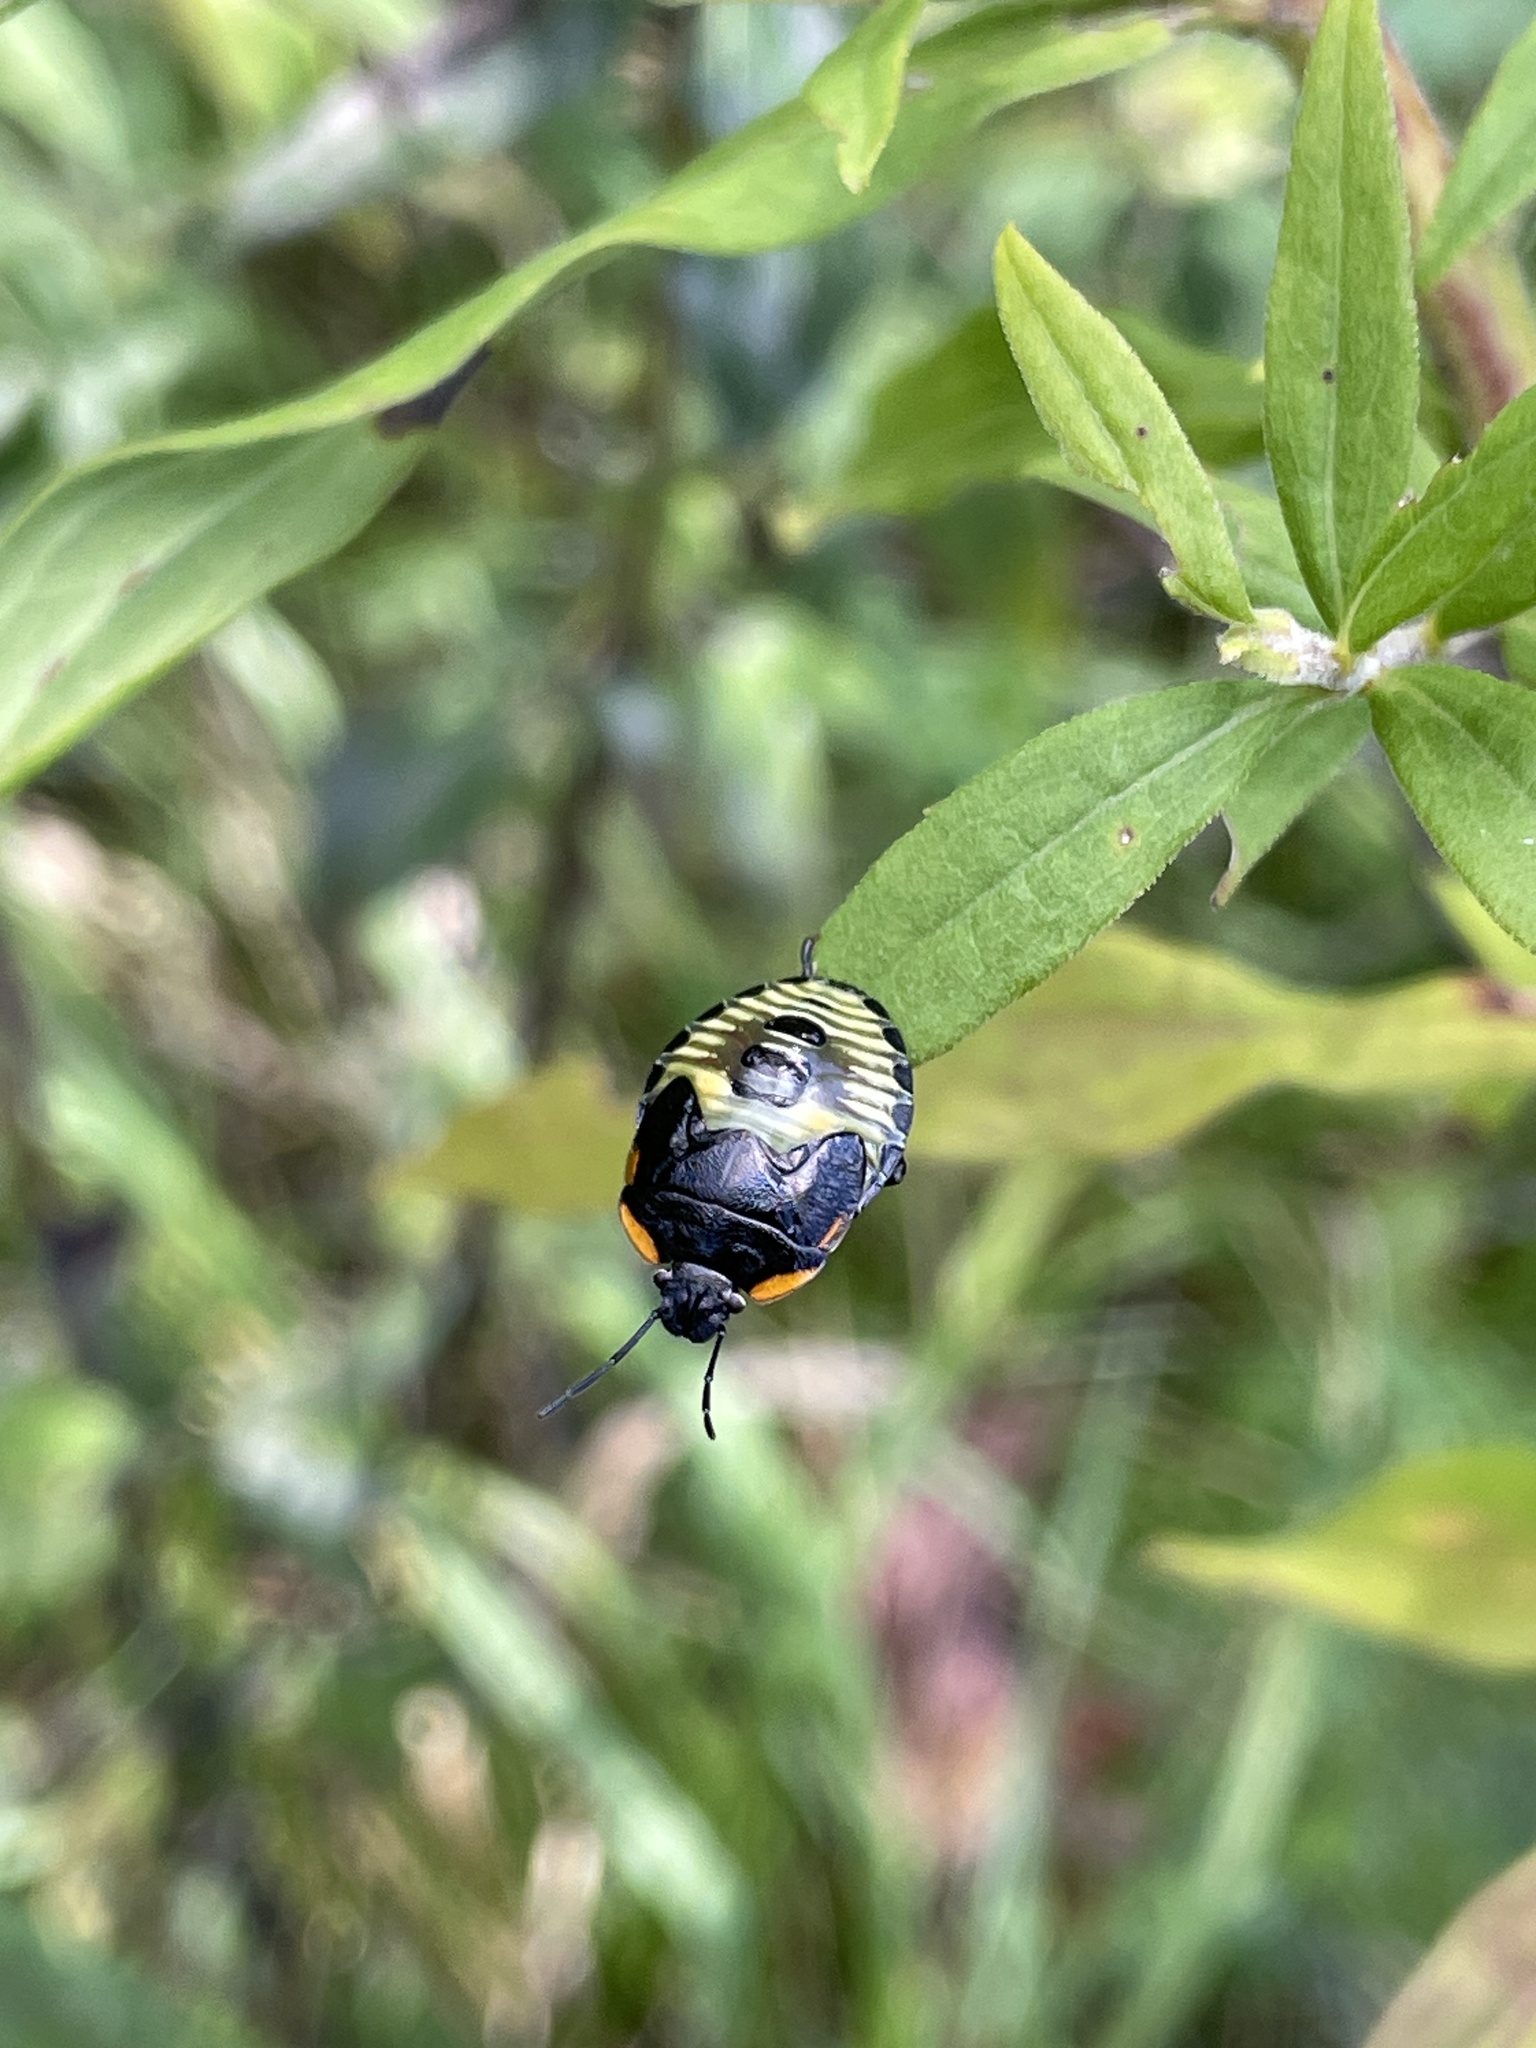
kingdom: Animalia
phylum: Arthropoda
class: Insecta
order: Hemiptera
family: Pentatomidae
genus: Chinavia
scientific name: Chinavia hilaris
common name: Green stink bug
